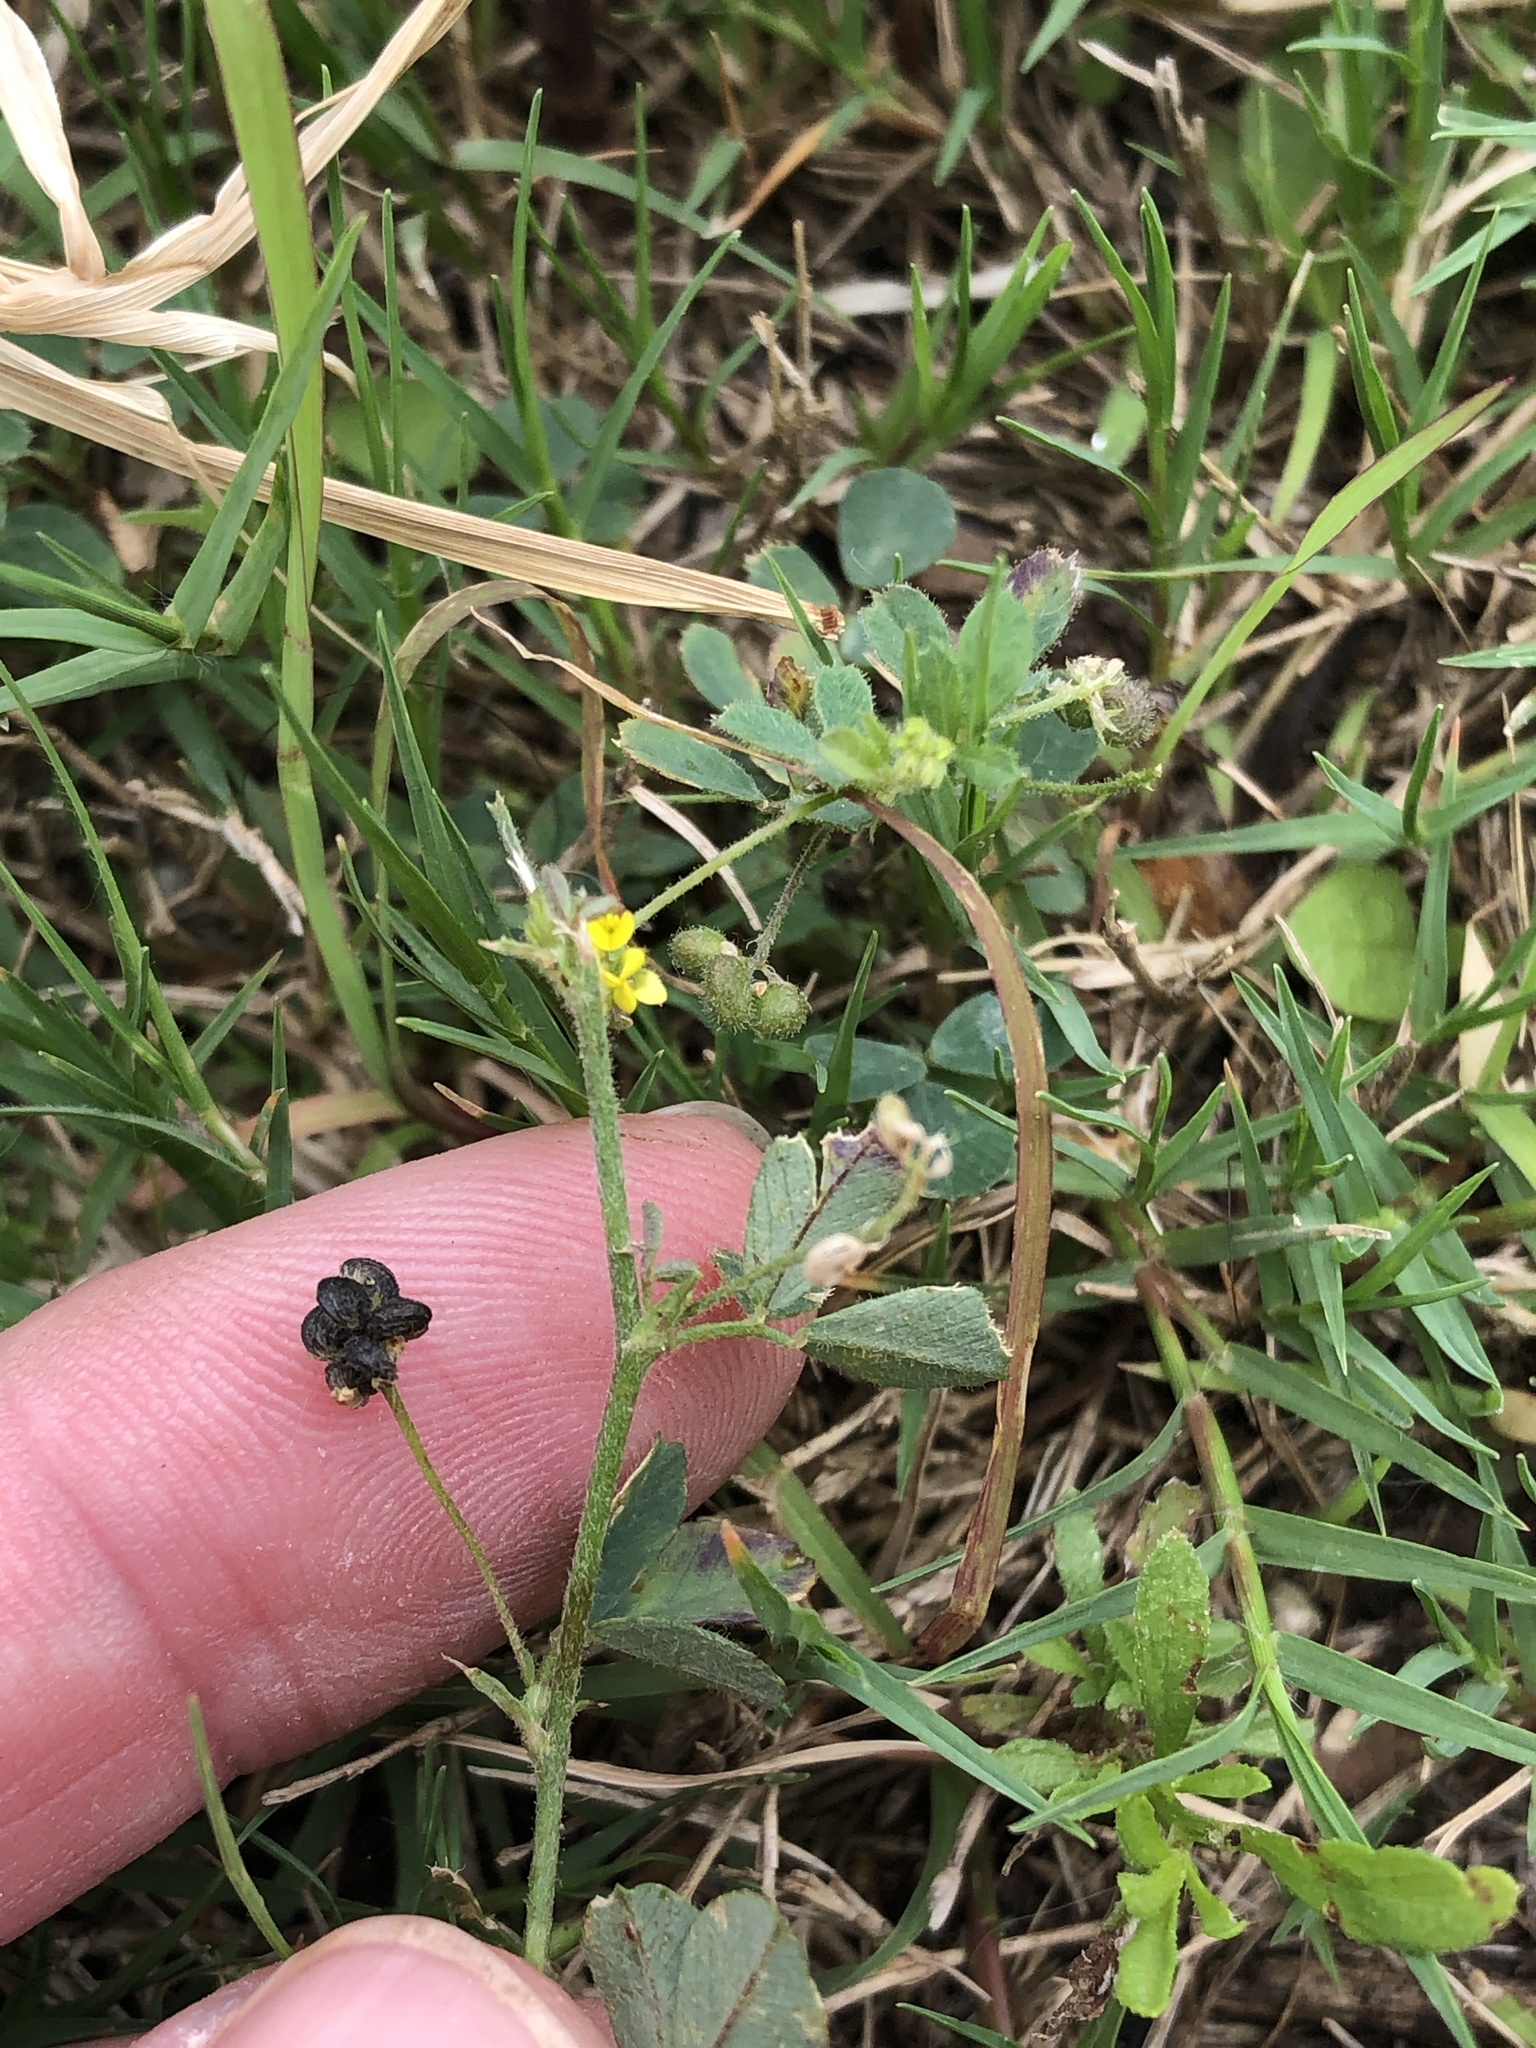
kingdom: Plantae
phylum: Tracheophyta
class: Magnoliopsida
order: Fabales
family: Fabaceae
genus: Medicago
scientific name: Medicago lupulina
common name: Black medick
